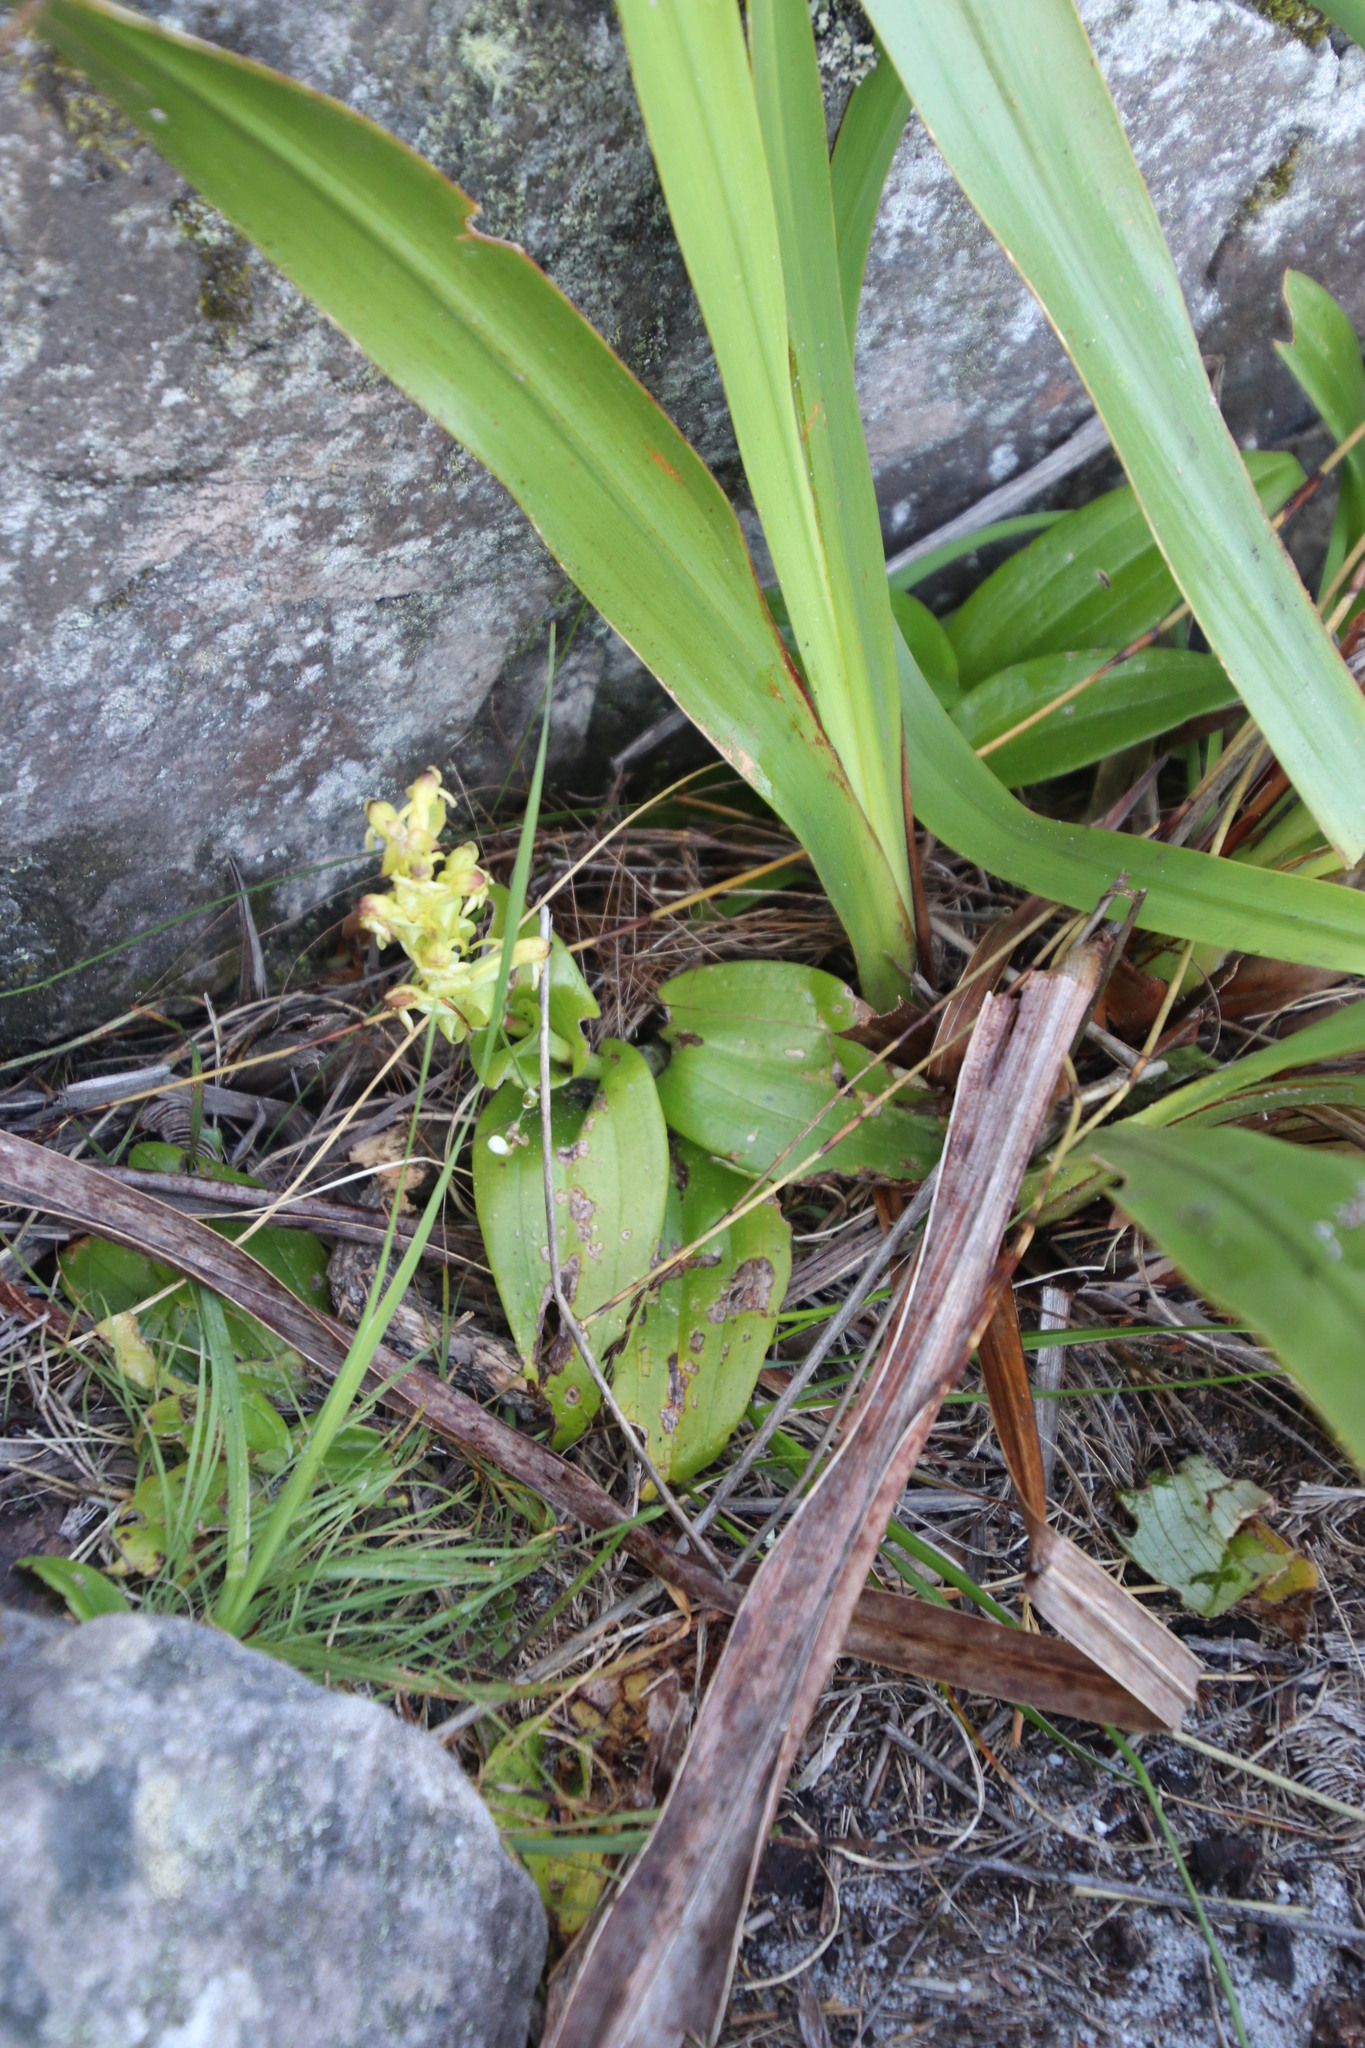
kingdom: Plantae
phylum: Tracheophyta
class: Liliopsida
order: Asparagales
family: Orchidaceae
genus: Satyrium
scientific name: Satyrium odorum
